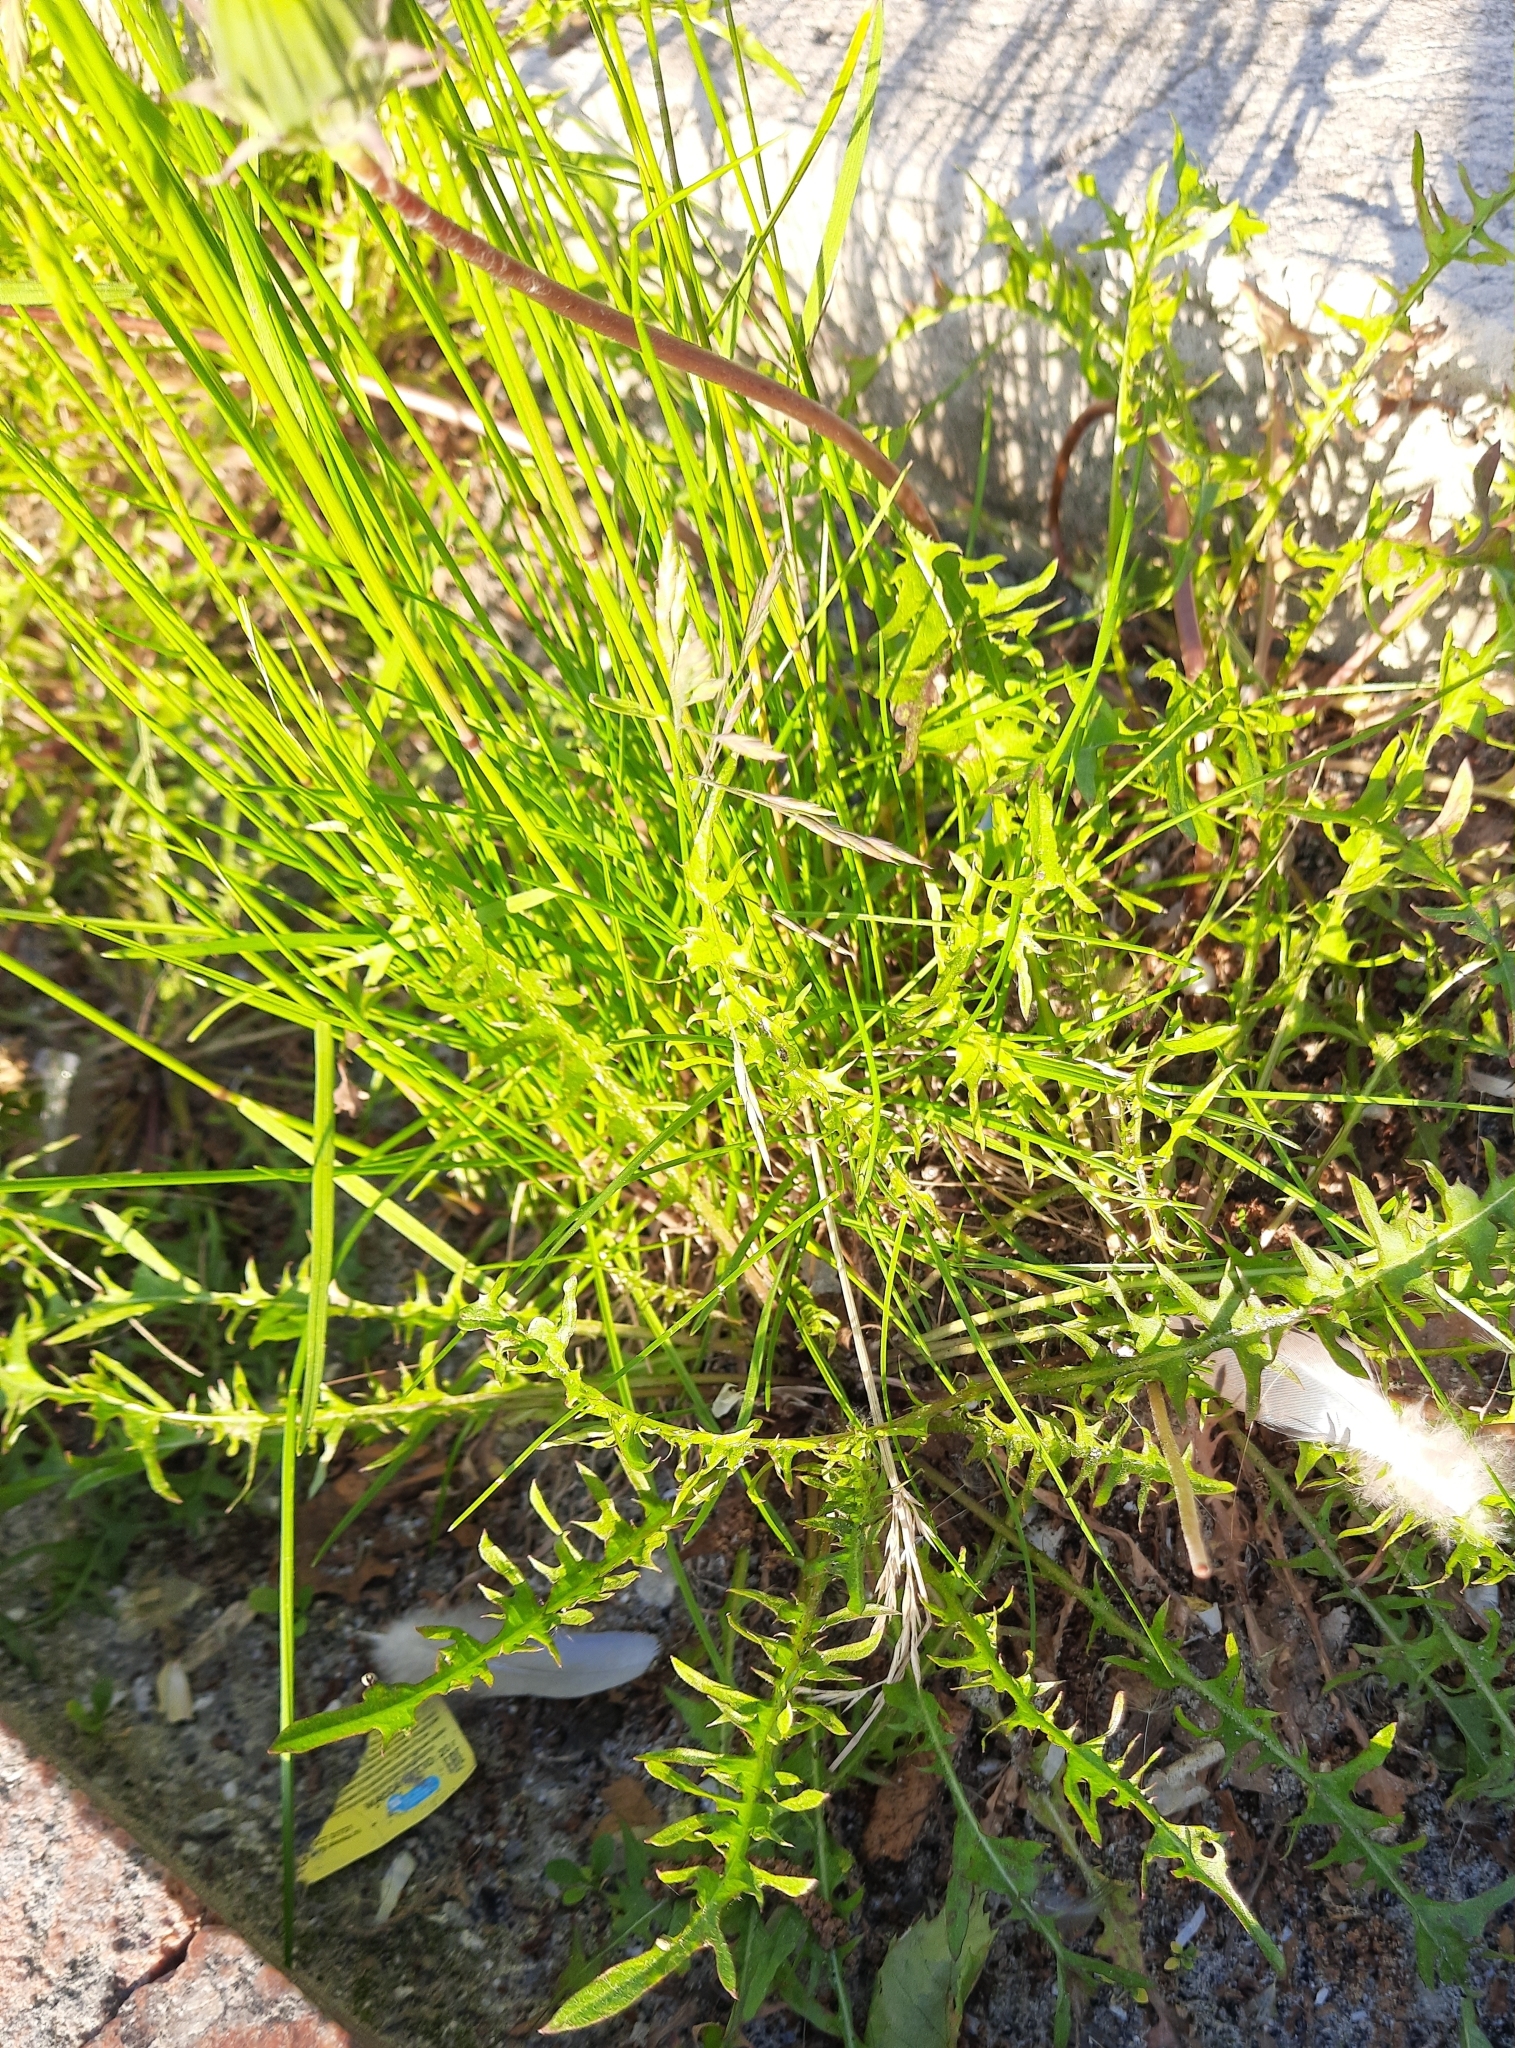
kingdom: Plantae
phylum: Tracheophyta
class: Magnoliopsida
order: Asterales
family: Asteraceae
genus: Taraxacum
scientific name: Taraxacum scariosum
